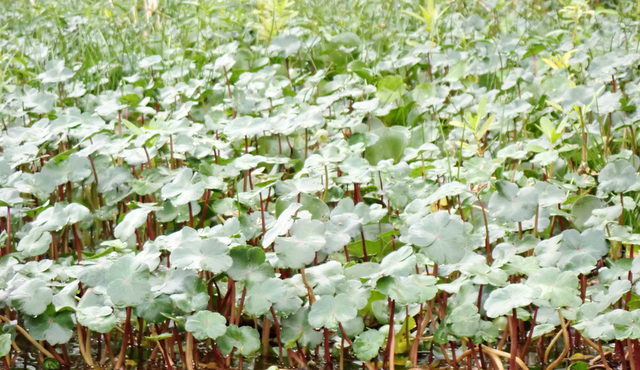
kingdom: Plantae
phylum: Tracheophyta
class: Magnoliopsida
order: Apiales
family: Araliaceae
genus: Hydrocotyle
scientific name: Hydrocotyle ranunculoides
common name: Floating pennywort
